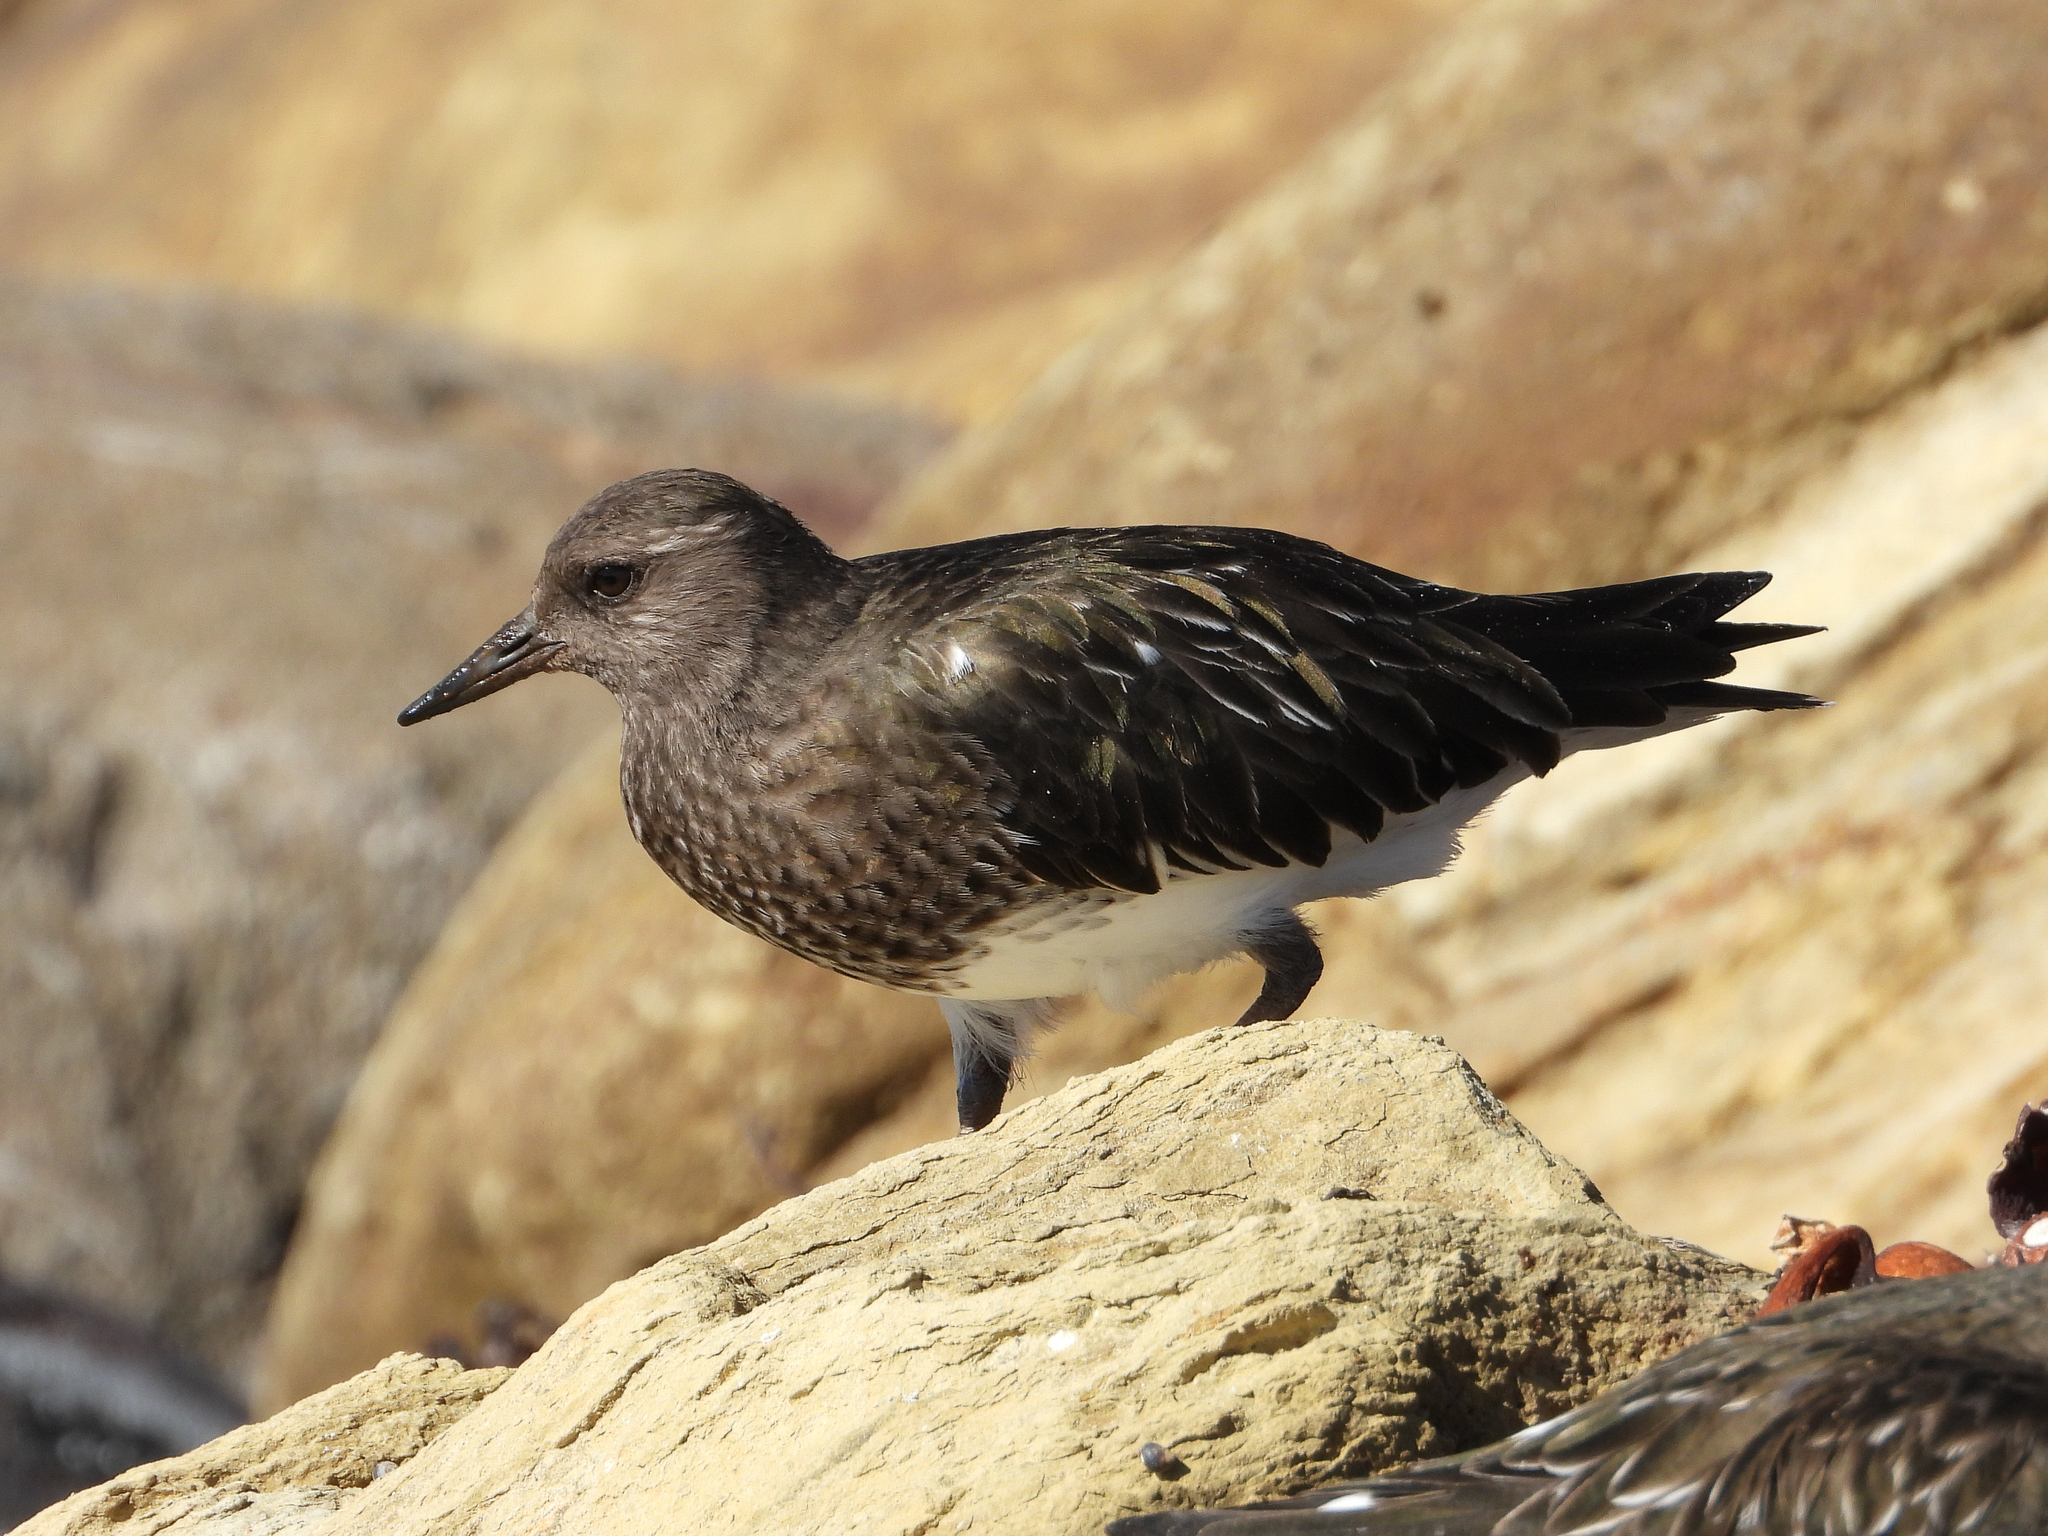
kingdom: Animalia
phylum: Chordata
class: Aves
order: Charadriiformes
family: Scolopacidae
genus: Arenaria
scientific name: Arenaria melanocephala
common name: Black turnstone
